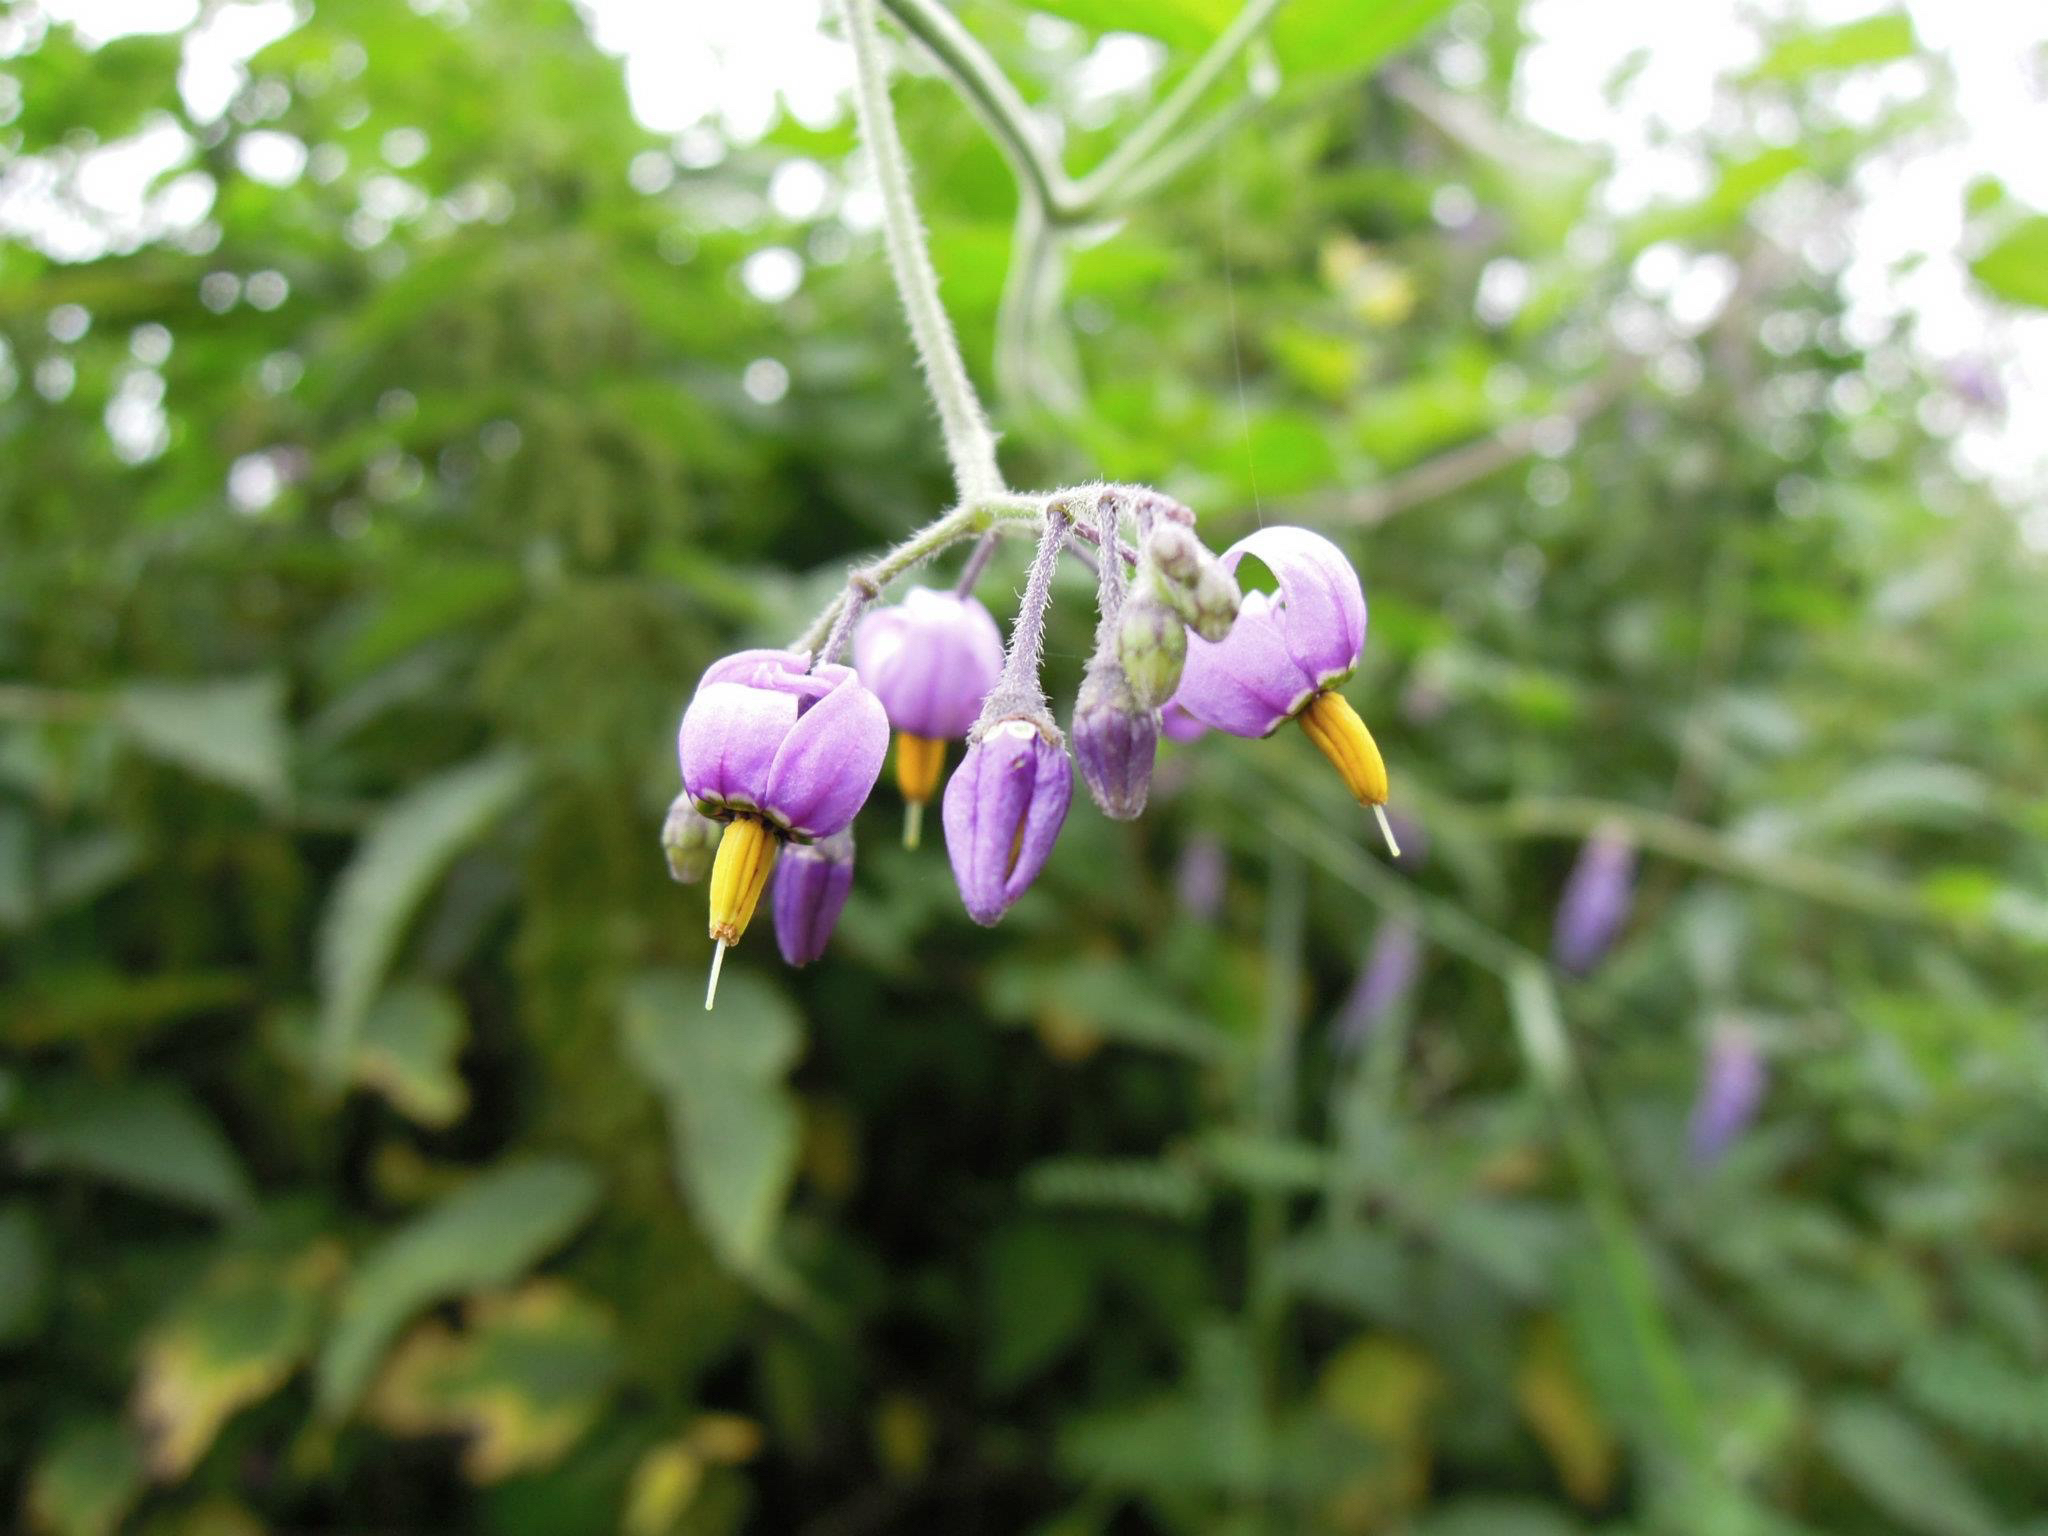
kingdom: Plantae
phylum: Tracheophyta
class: Magnoliopsida
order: Solanales
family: Solanaceae
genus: Solanum
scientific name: Solanum dulcamara
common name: Climbing nightshade
